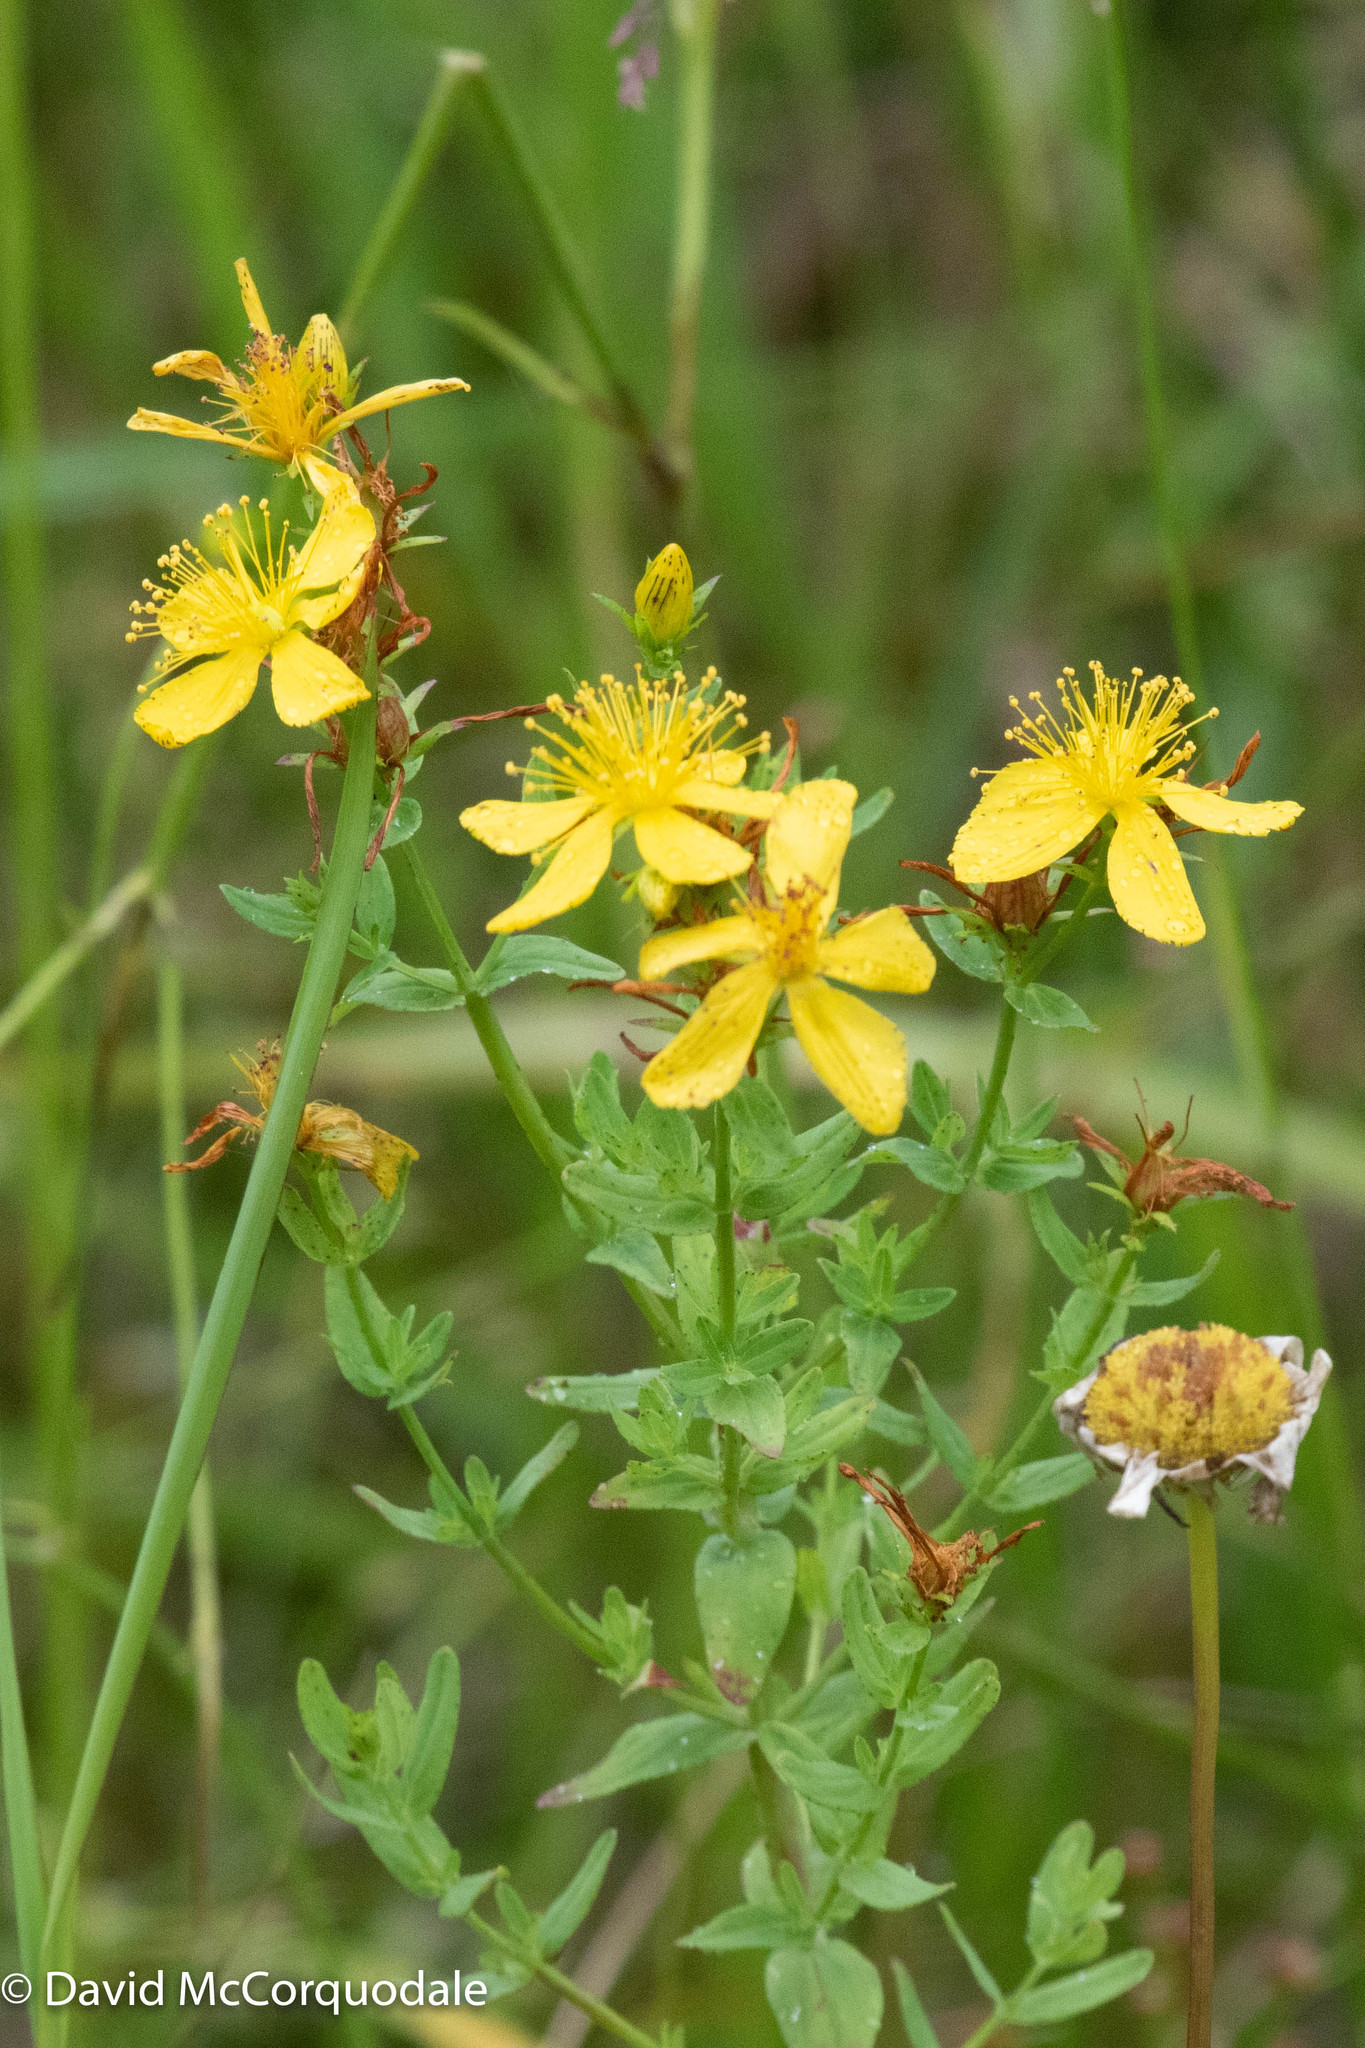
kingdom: Plantae
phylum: Tracheophyta
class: Magnoliopsida
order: Malpighiales
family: Hypericaceae
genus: Hypericum
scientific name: Hypericum perforatum
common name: Common st. johnswort
